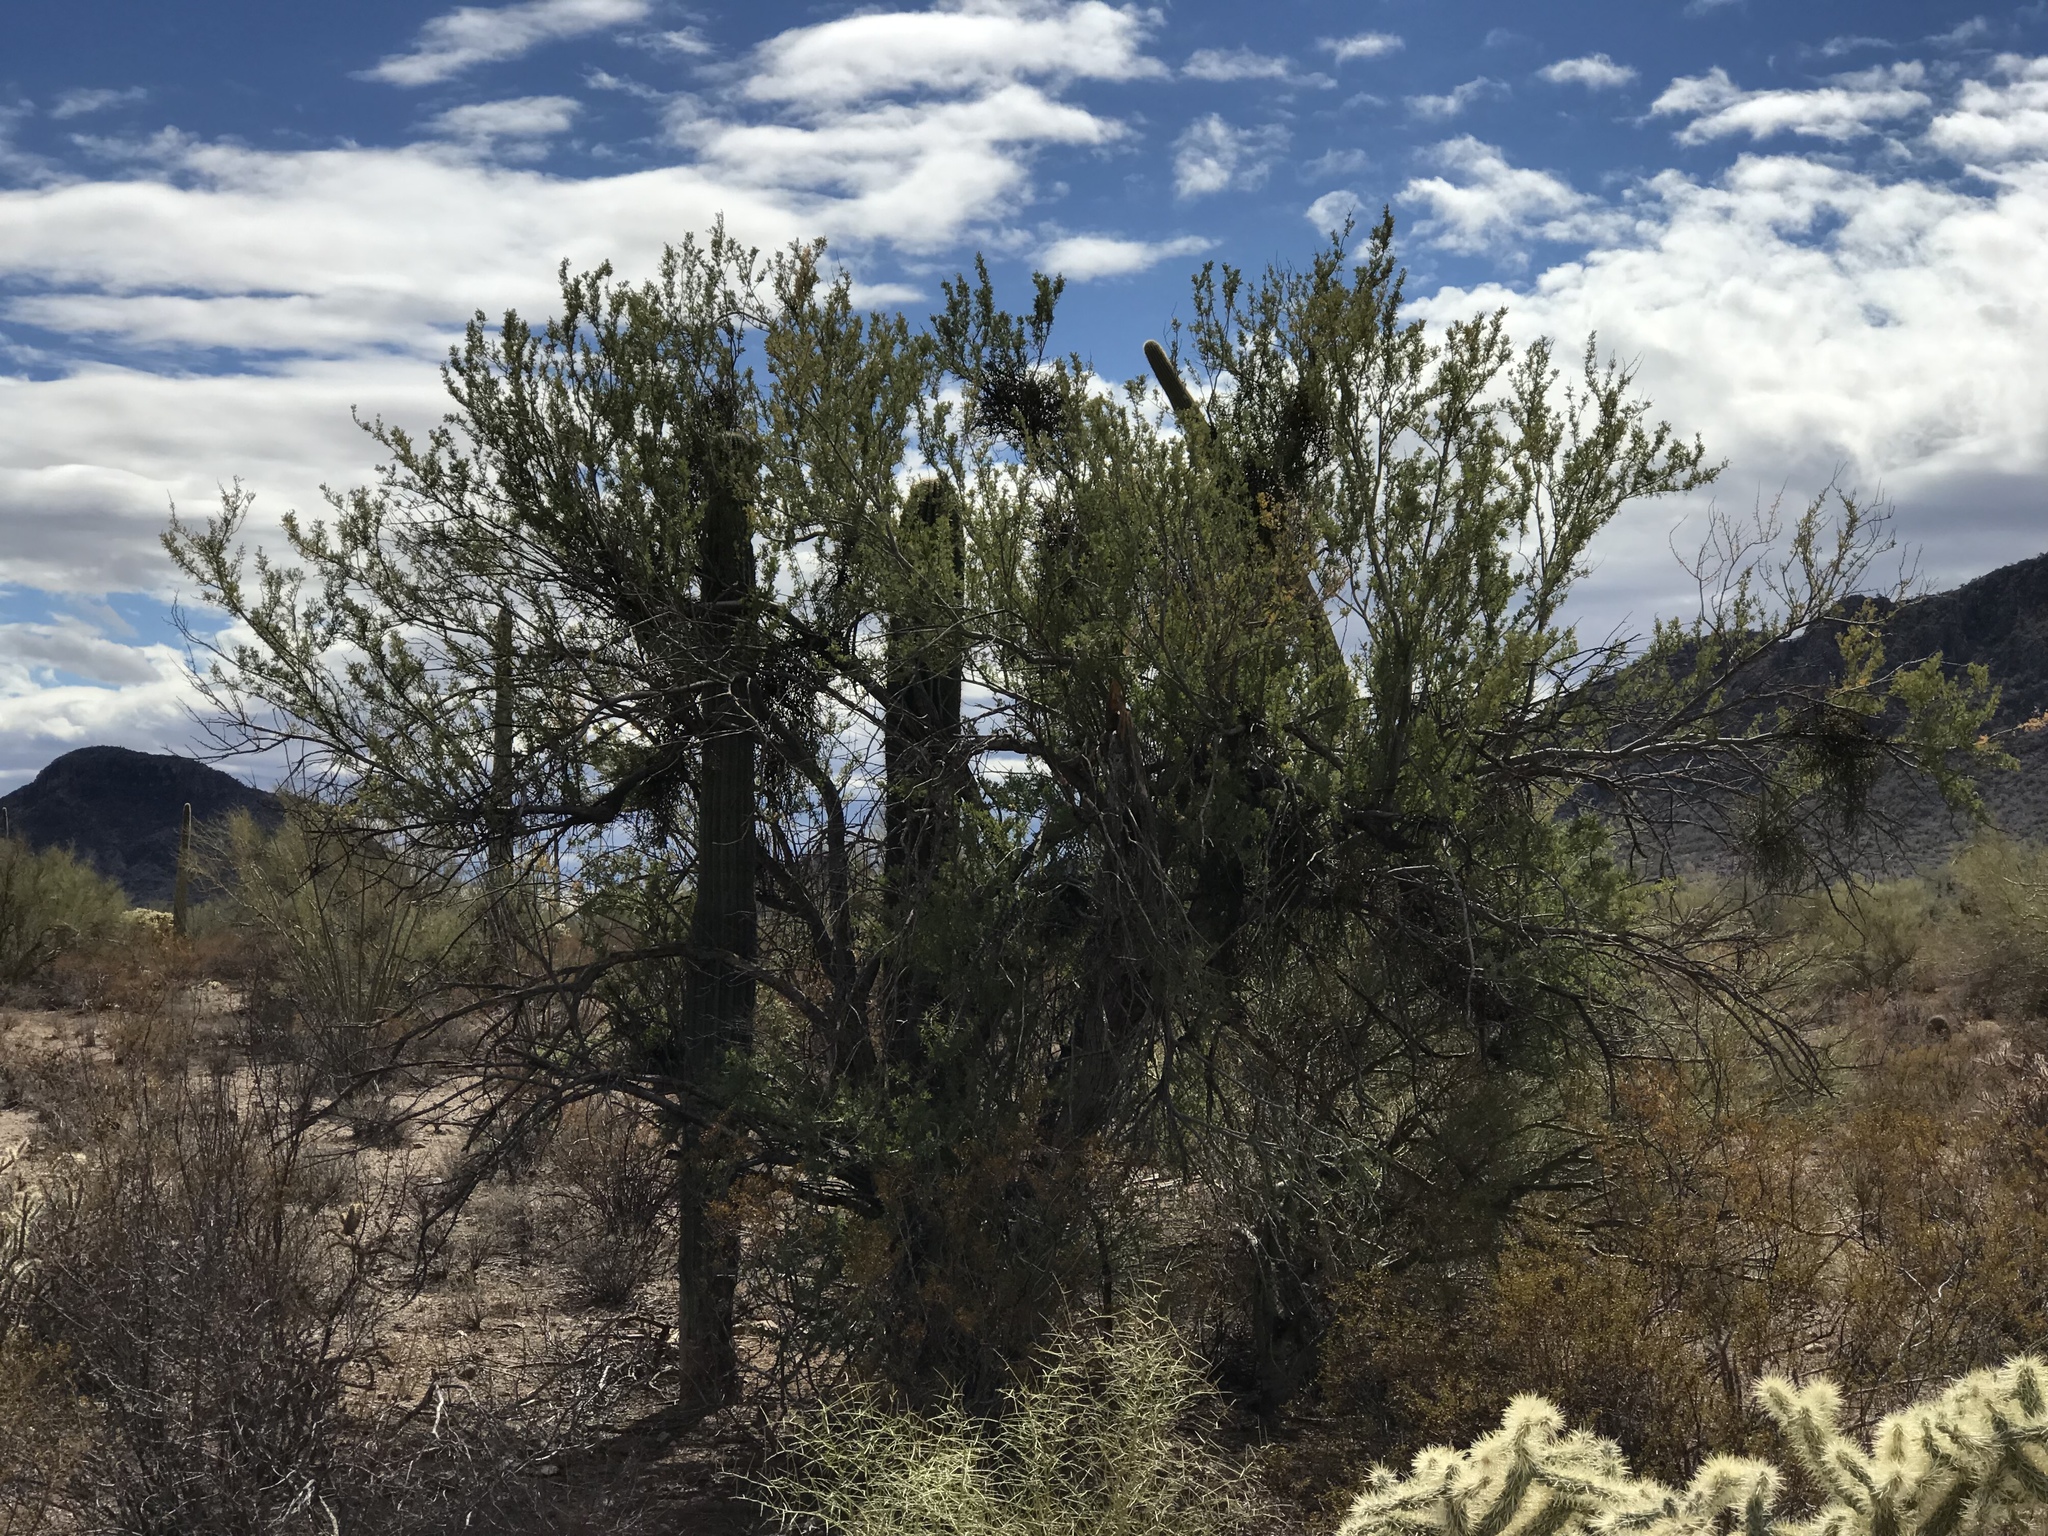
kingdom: Plantae
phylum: Tracheophyta
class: Magnoliopsida
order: Fabales
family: Fabaceae
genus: Olneya
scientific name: Olneya tesota
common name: Desert ironwood
